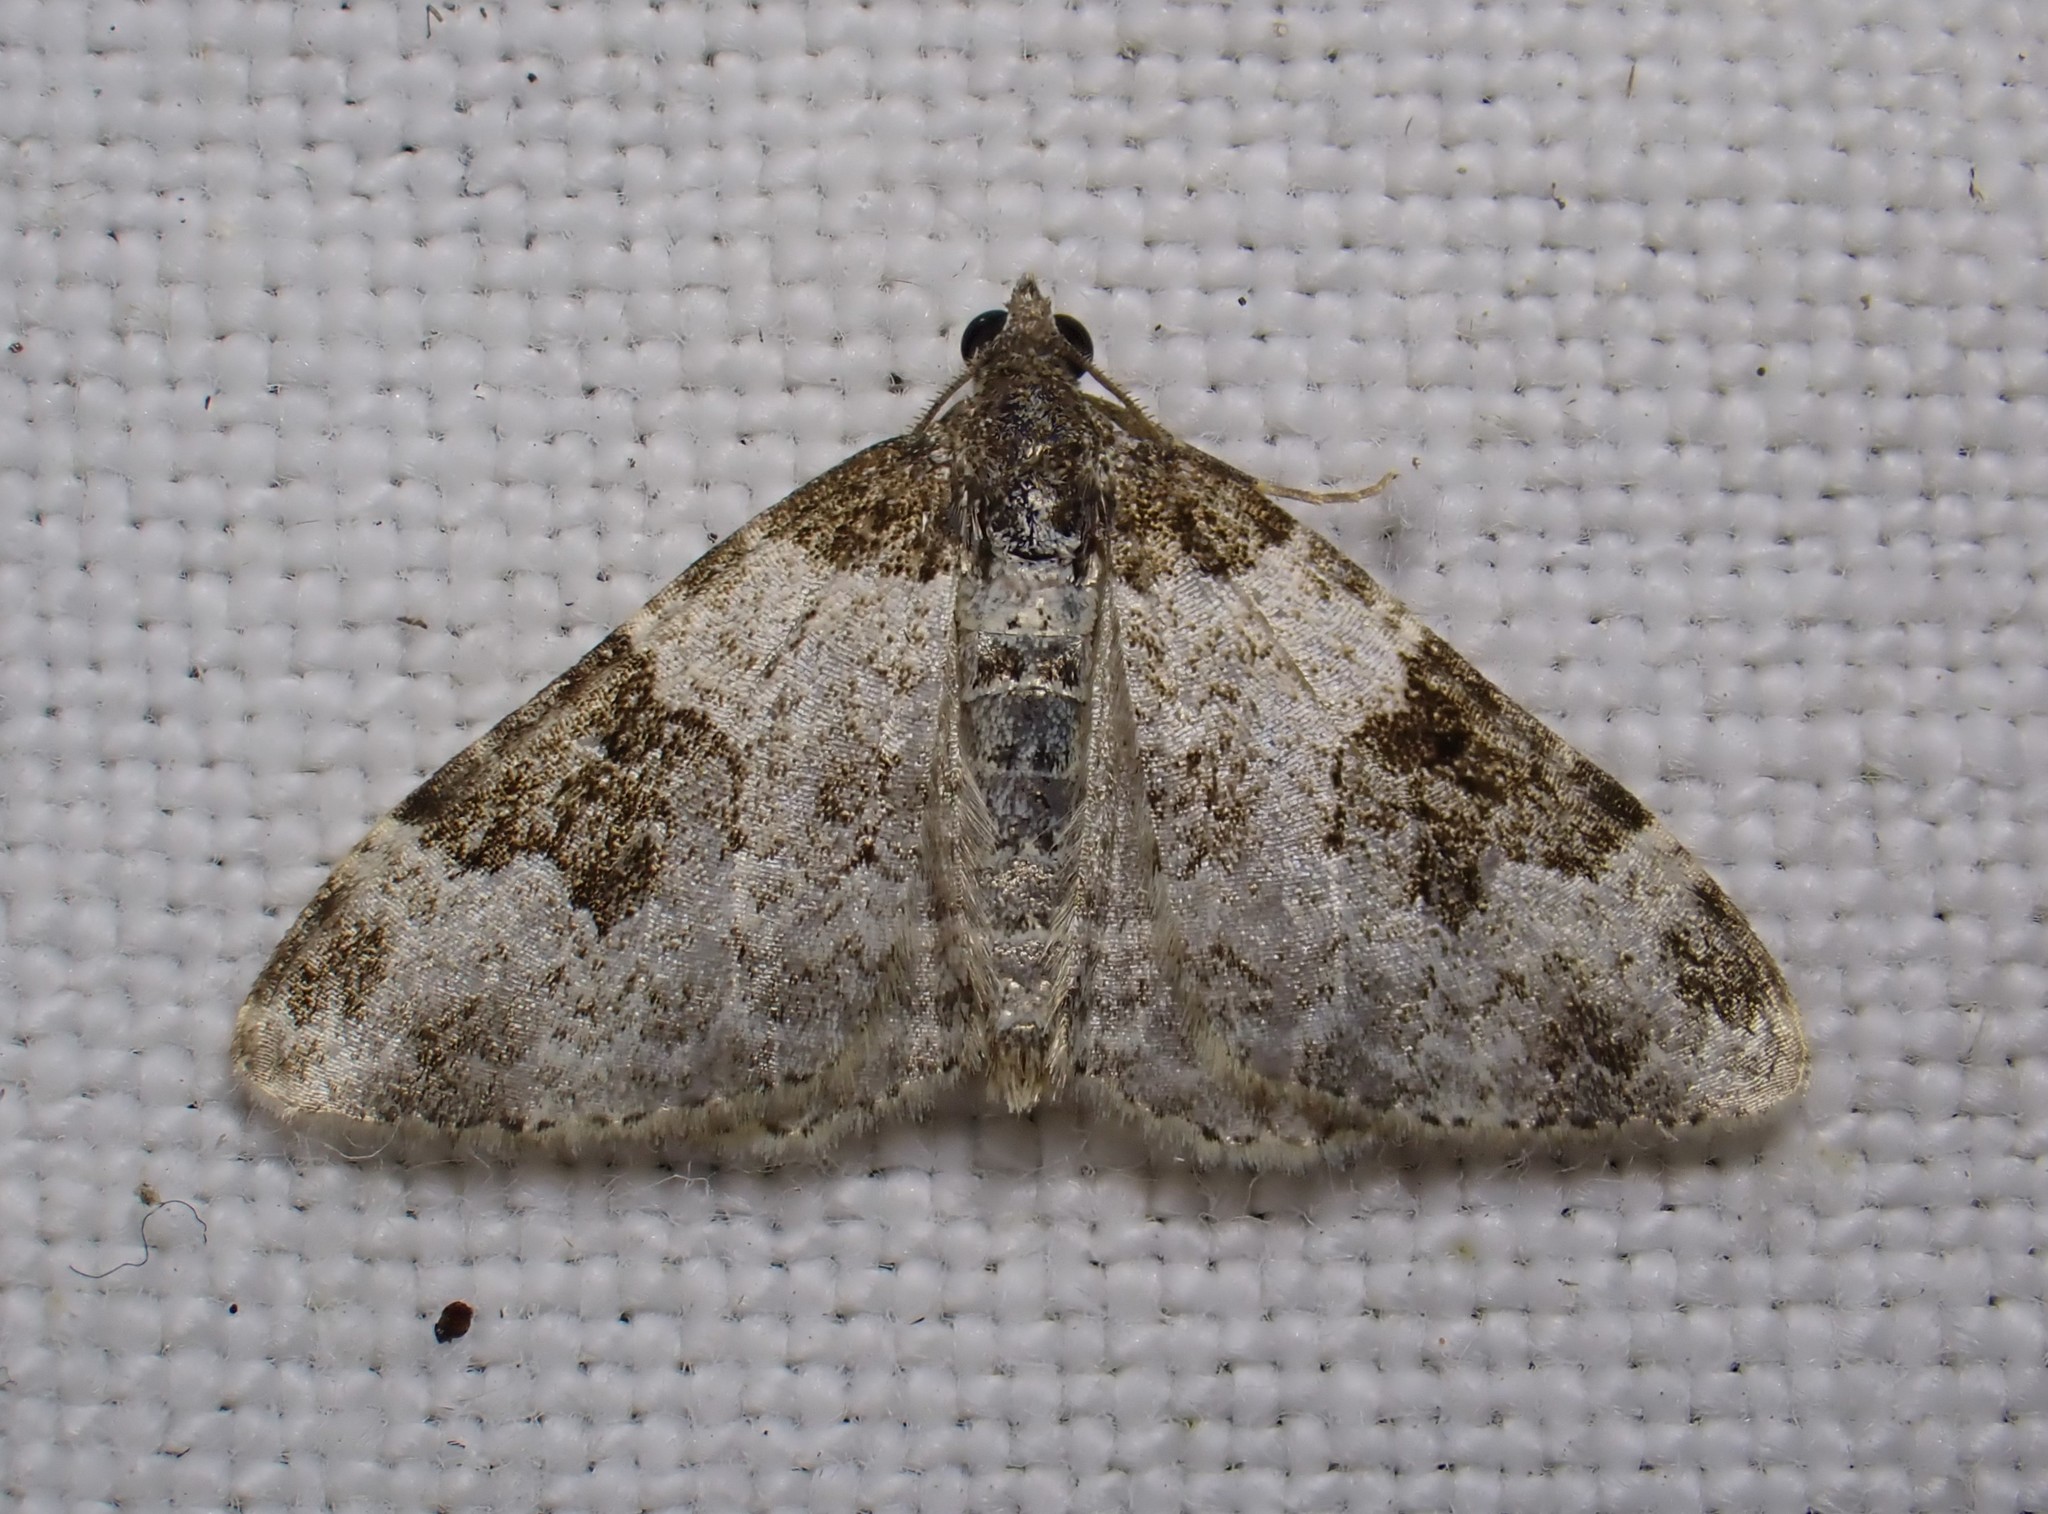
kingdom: Animalia
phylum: Arthropoda
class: Insecta
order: Lepidoptera
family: Geometridae
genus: Xanthorhoe
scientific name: Xanthorhoe fluctuata
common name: Garden carpet
